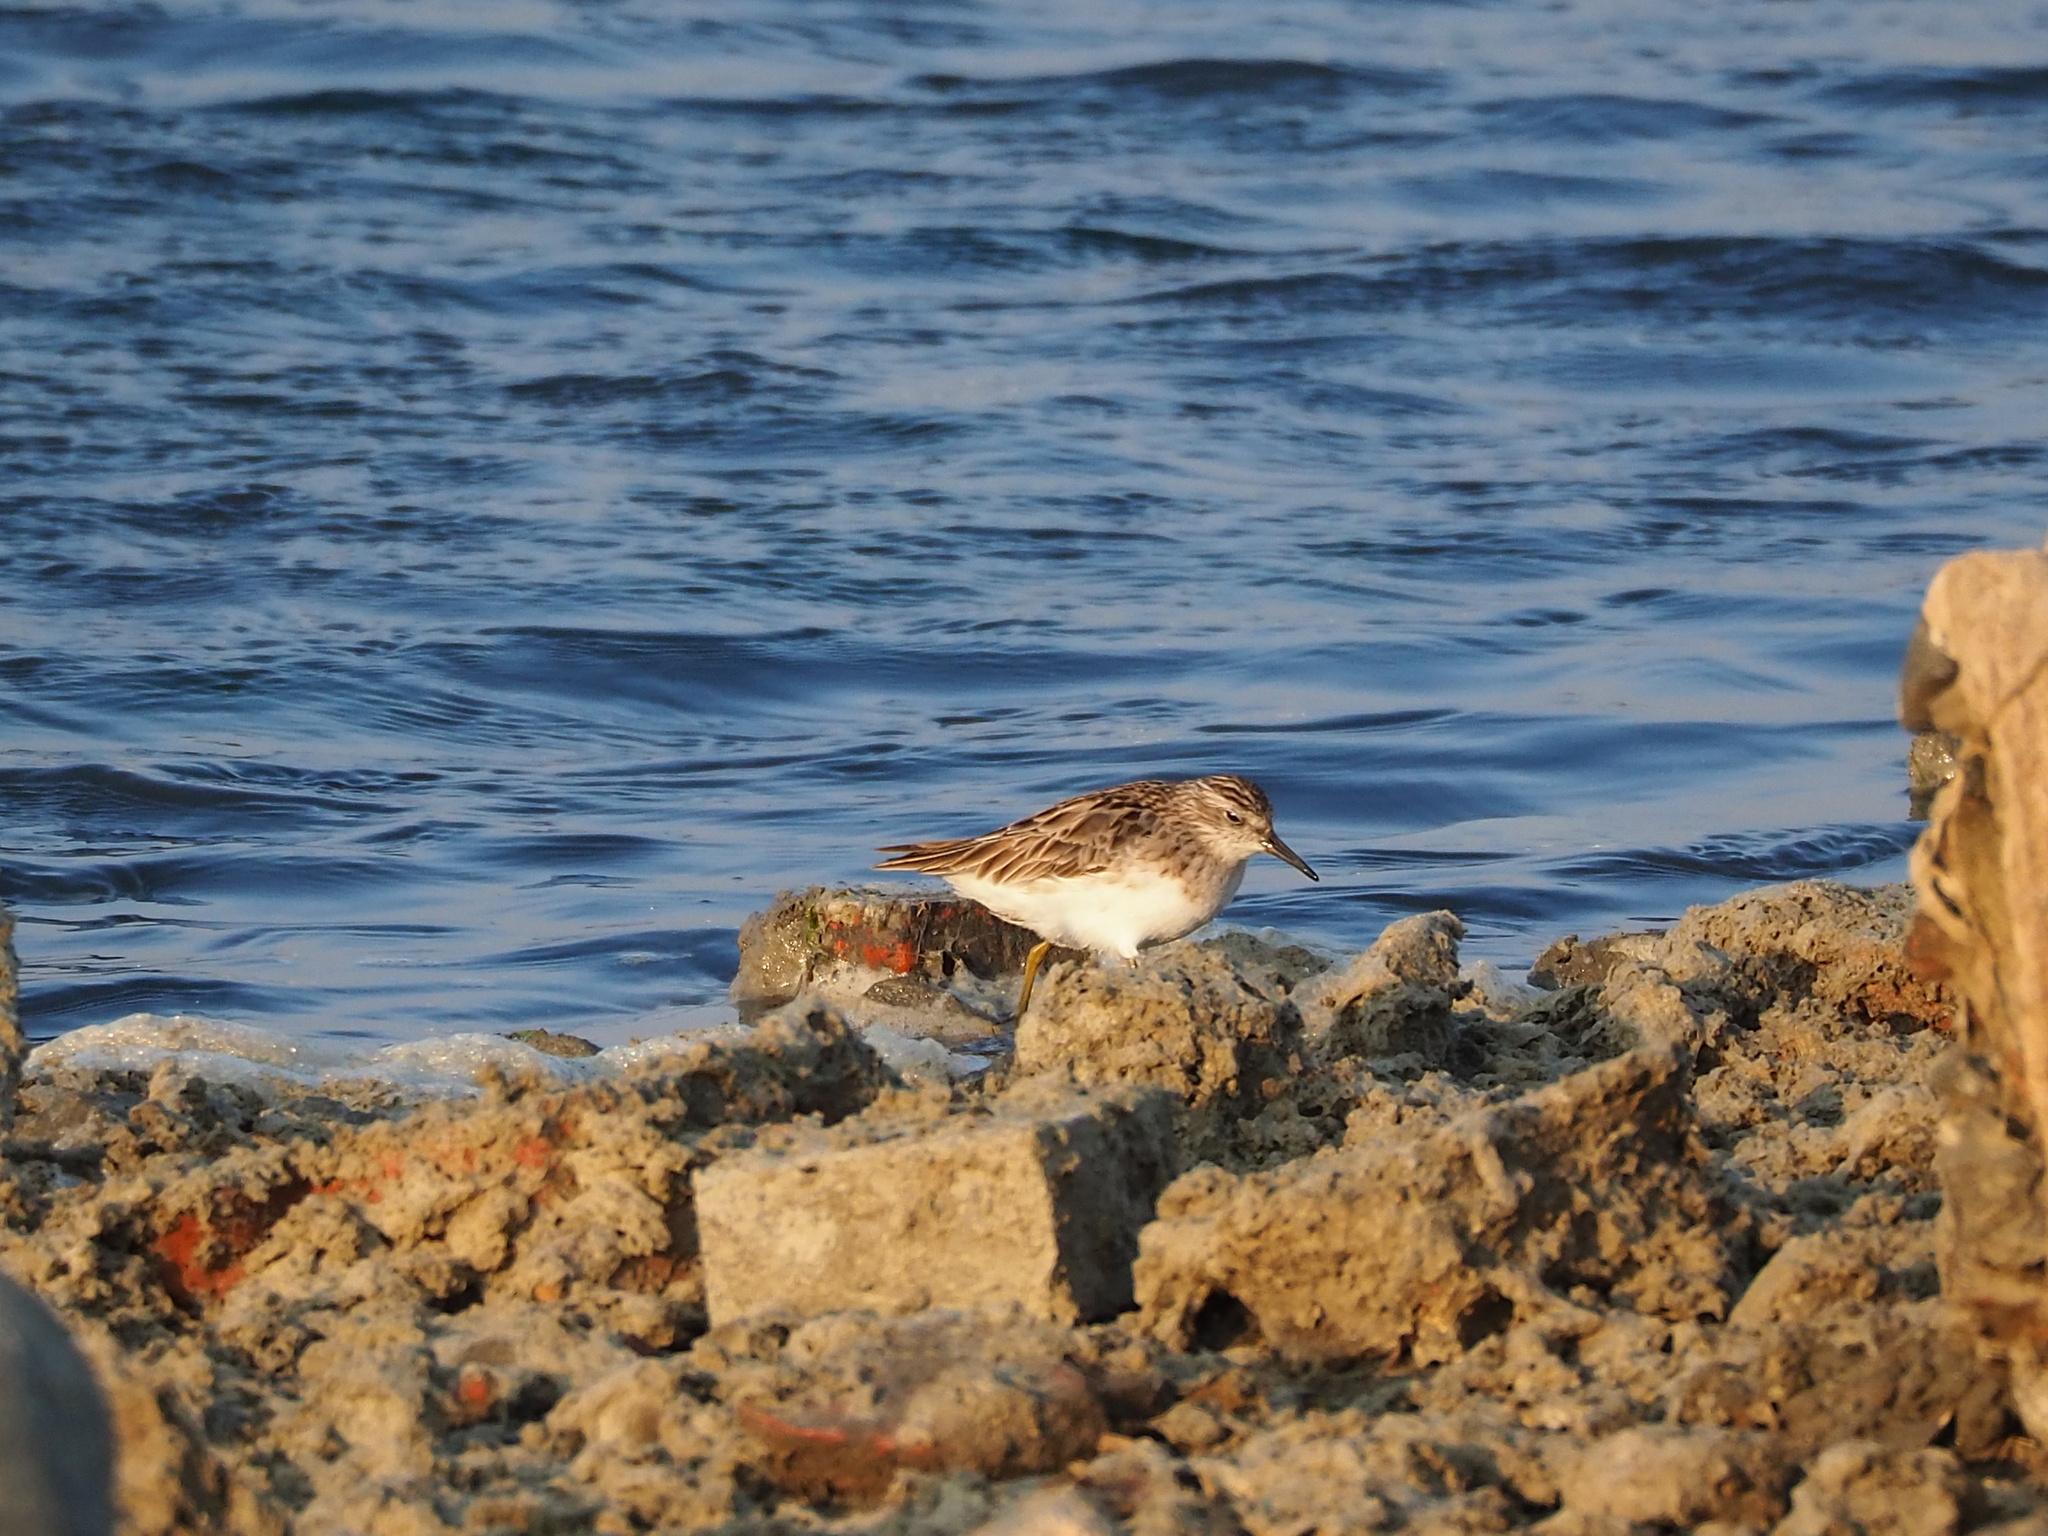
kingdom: Animalia
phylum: Chordata
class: Aves
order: Charadriiformes
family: Scolopacidae
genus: Calidris
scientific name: Calidris subminuta
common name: Long-toed stint
